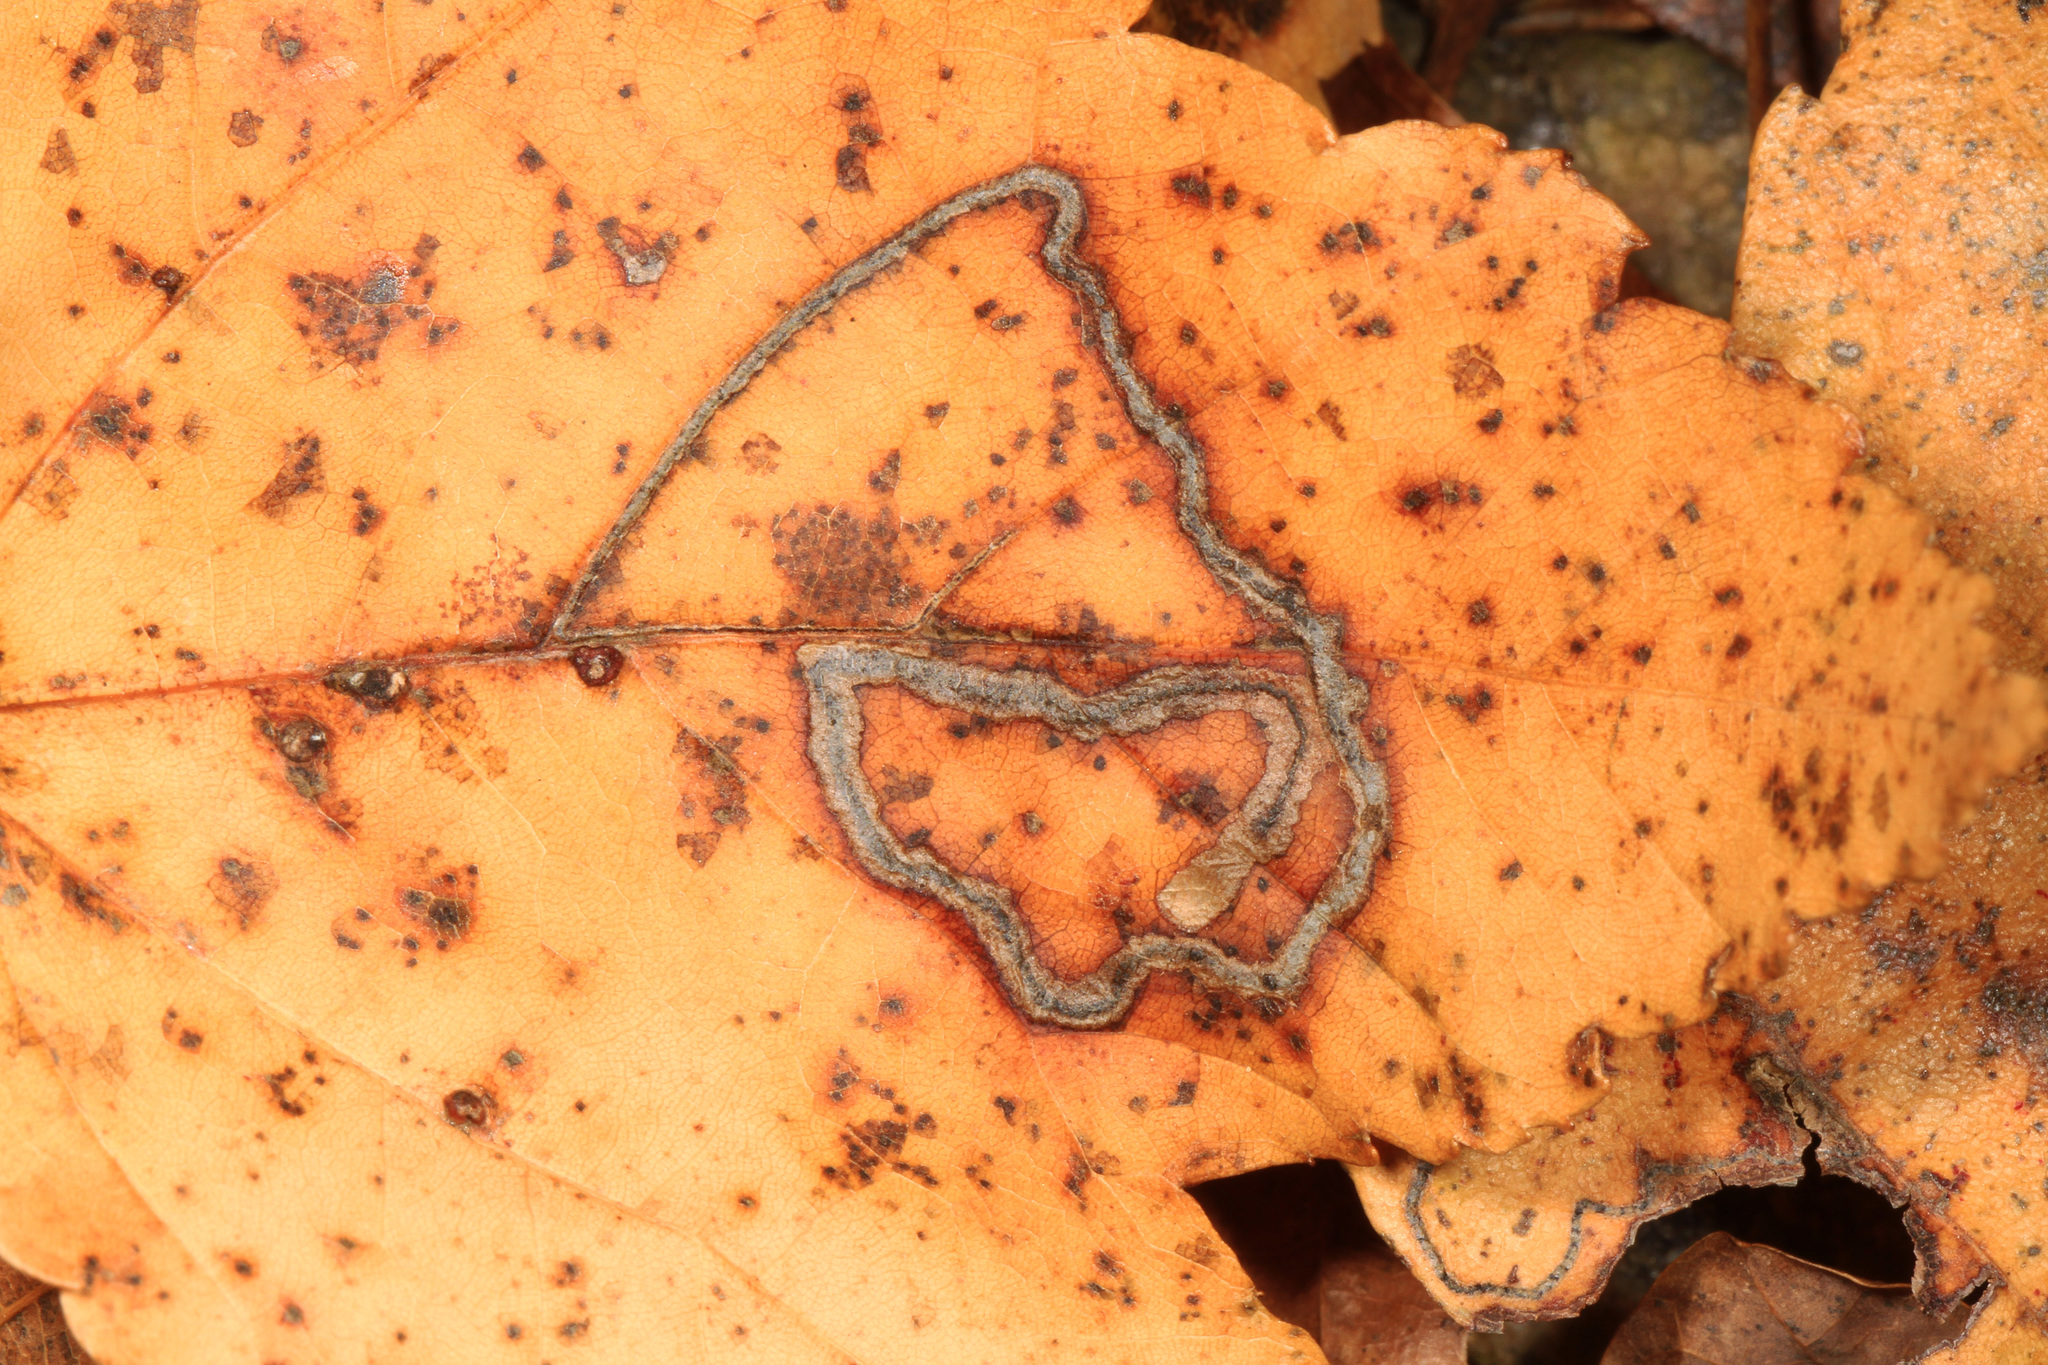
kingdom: Animalia
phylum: Arthropoda
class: Insecta
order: Lepidoptera
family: Nepticulidae
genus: Glaucolepis
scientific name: Glaucolepis saccharella
